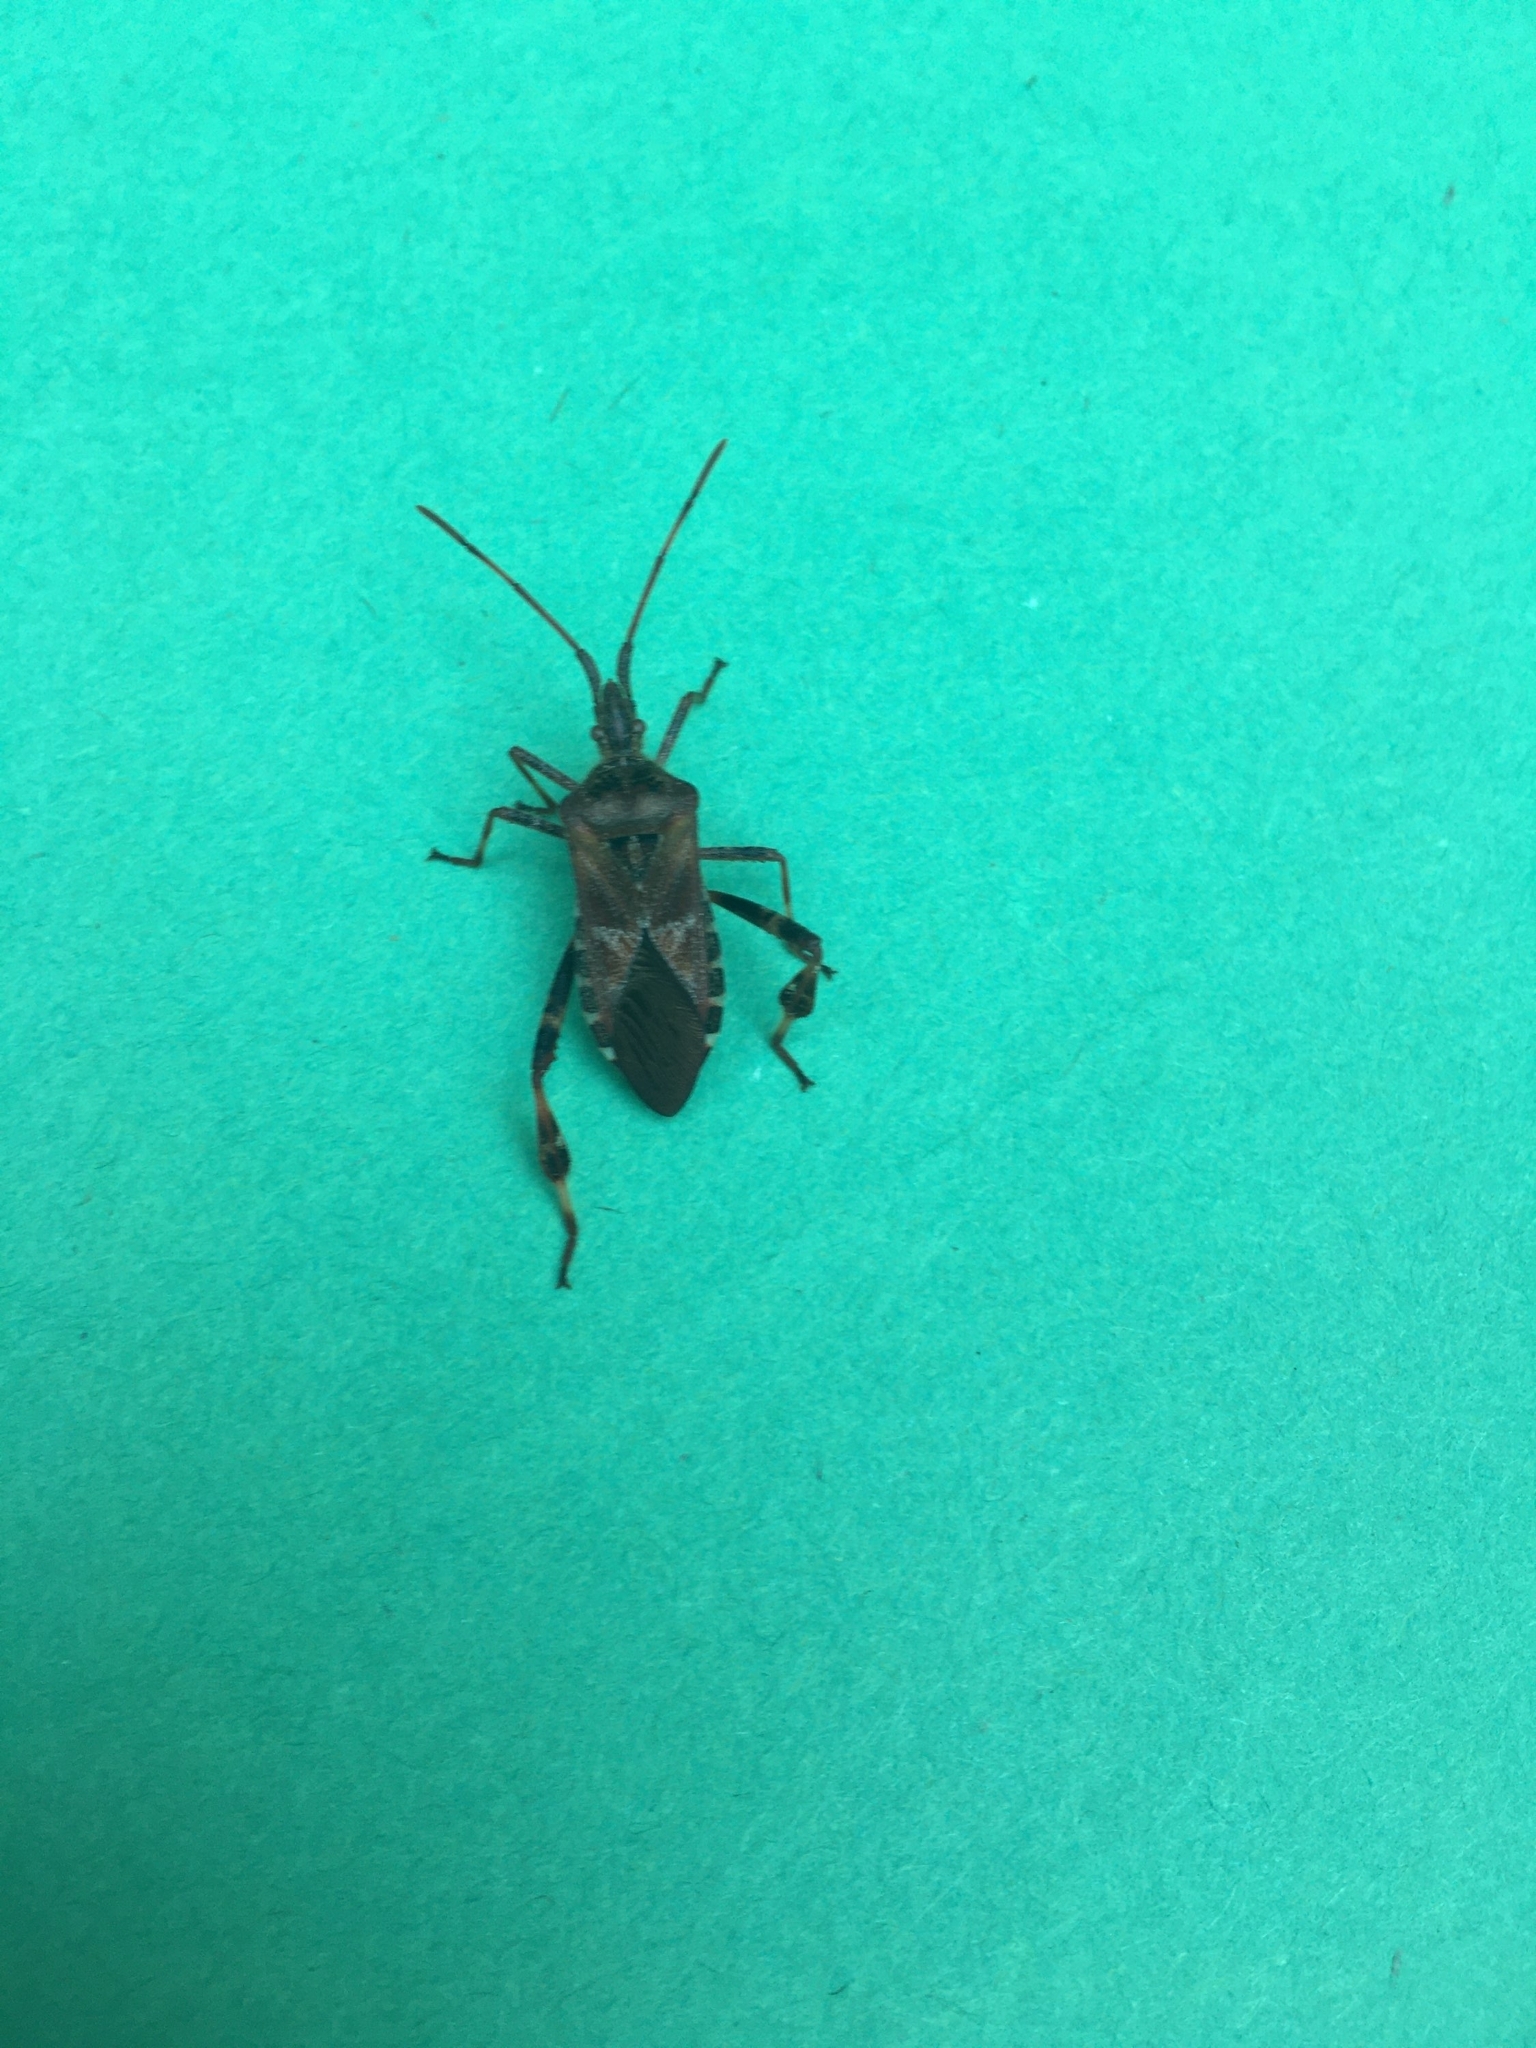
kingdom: Animalia
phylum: Arthropoda
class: Insecta
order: Hemiptera
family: Coreidae
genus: Leptoglossus
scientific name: Leptoglossus occidentalis
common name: Western conifer-seed bug
